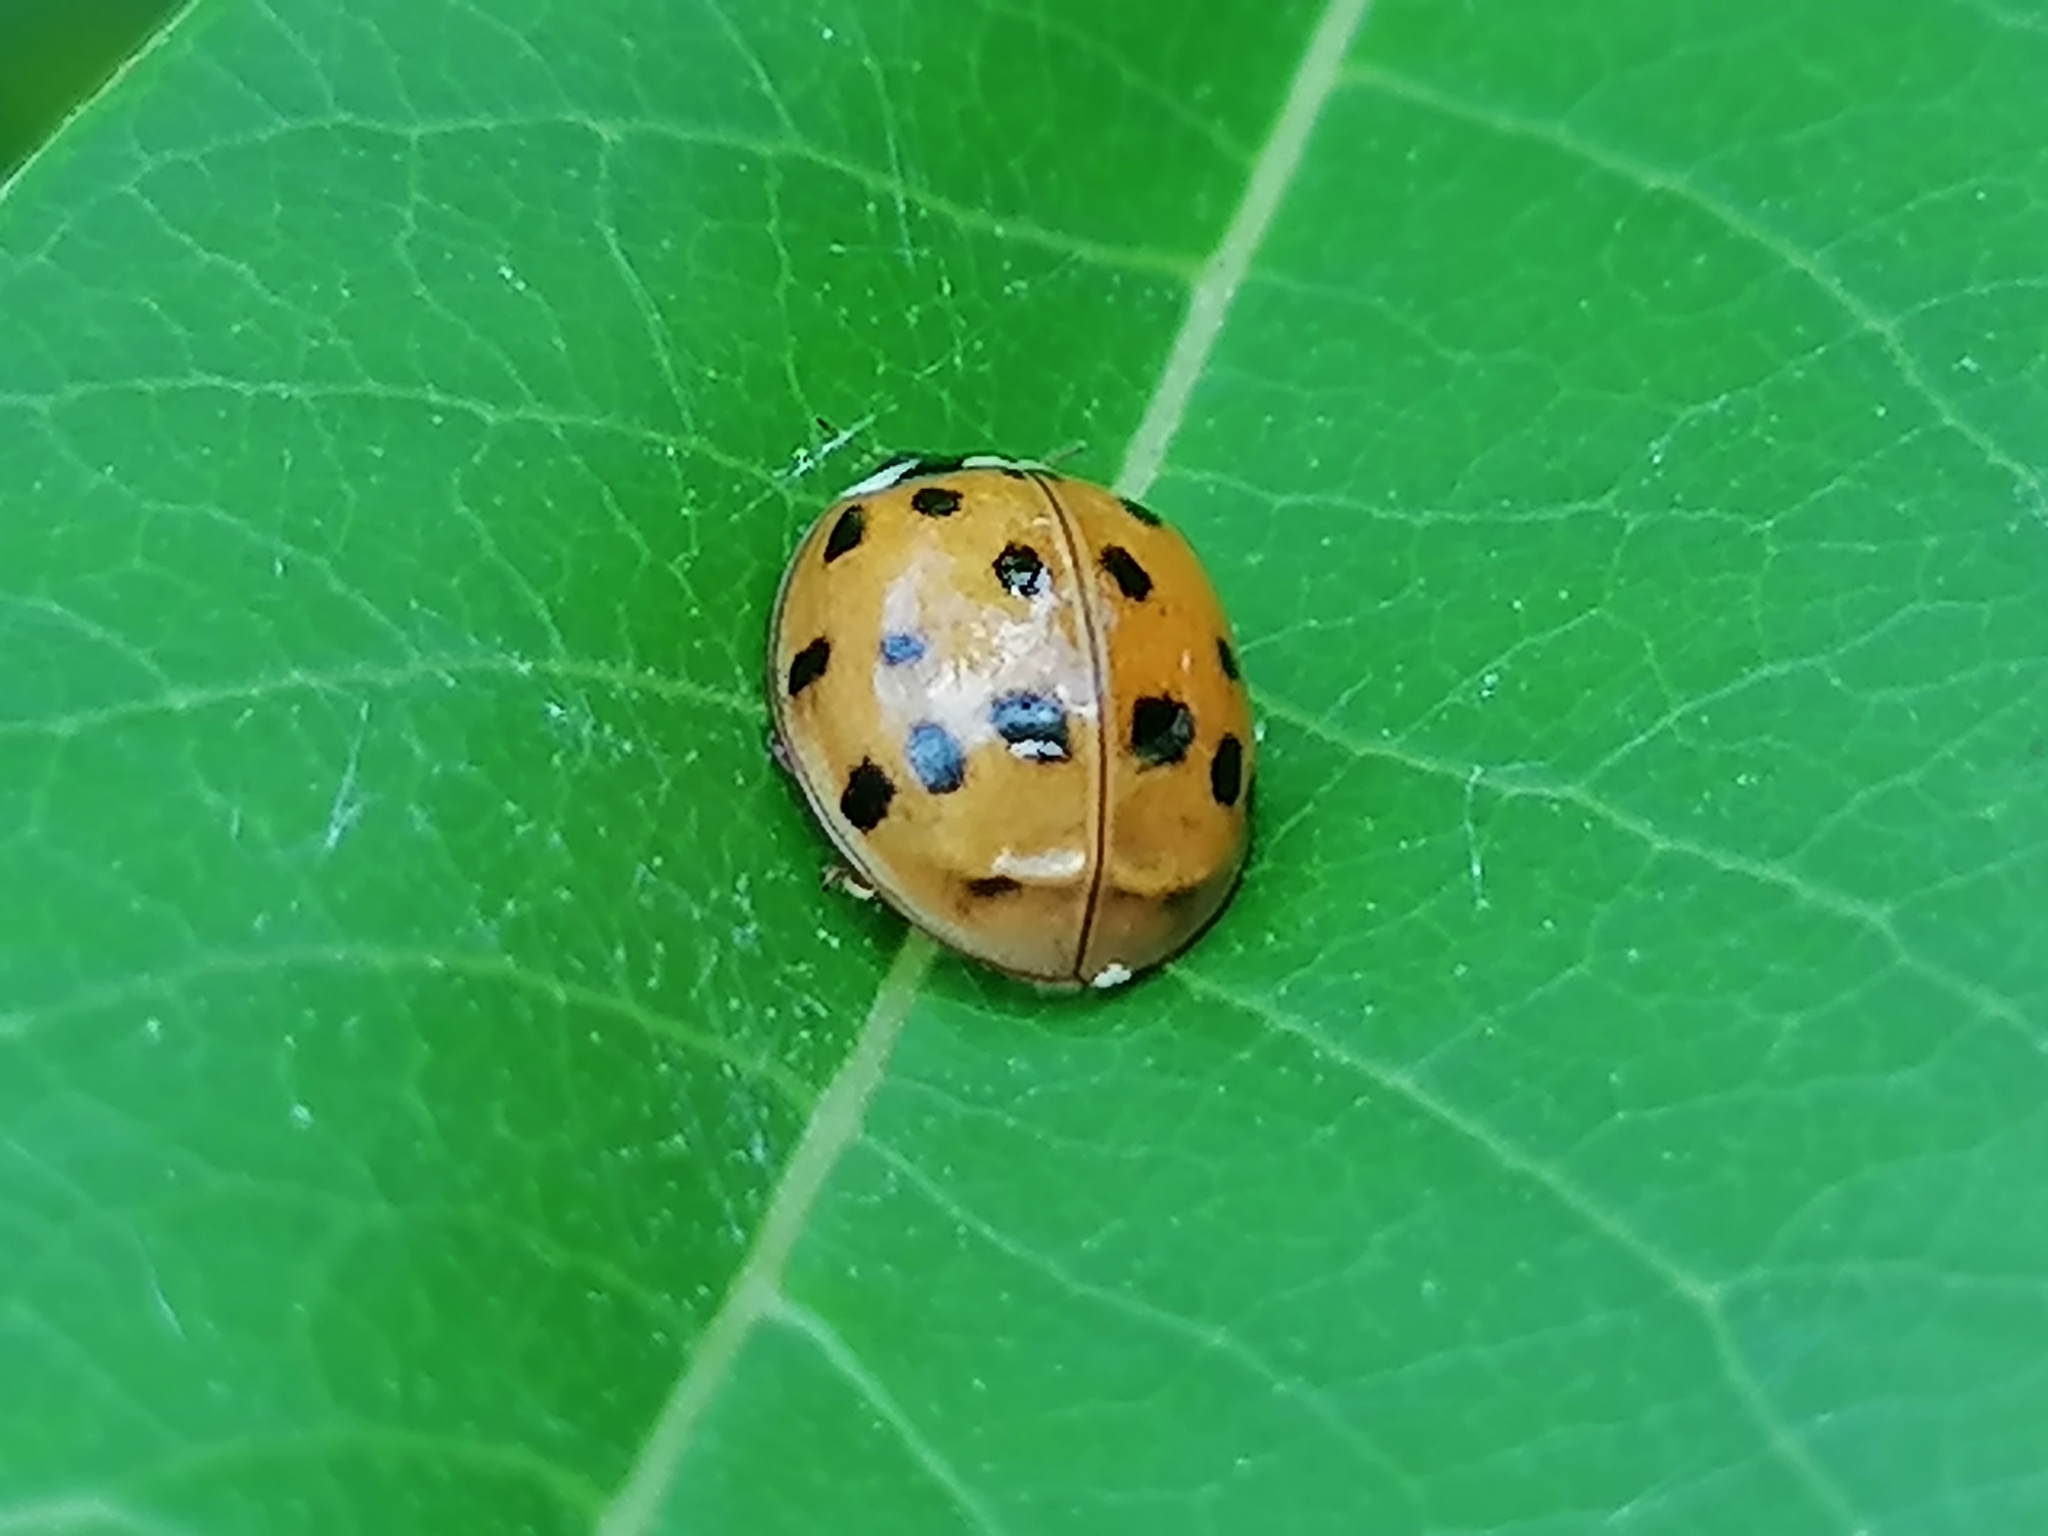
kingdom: Animalia
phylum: Arthropoda
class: Insecta
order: Coleoptera
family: Coccinellidae
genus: Harmonia
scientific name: Harmonia axyridis
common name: Harlequin ladybird
